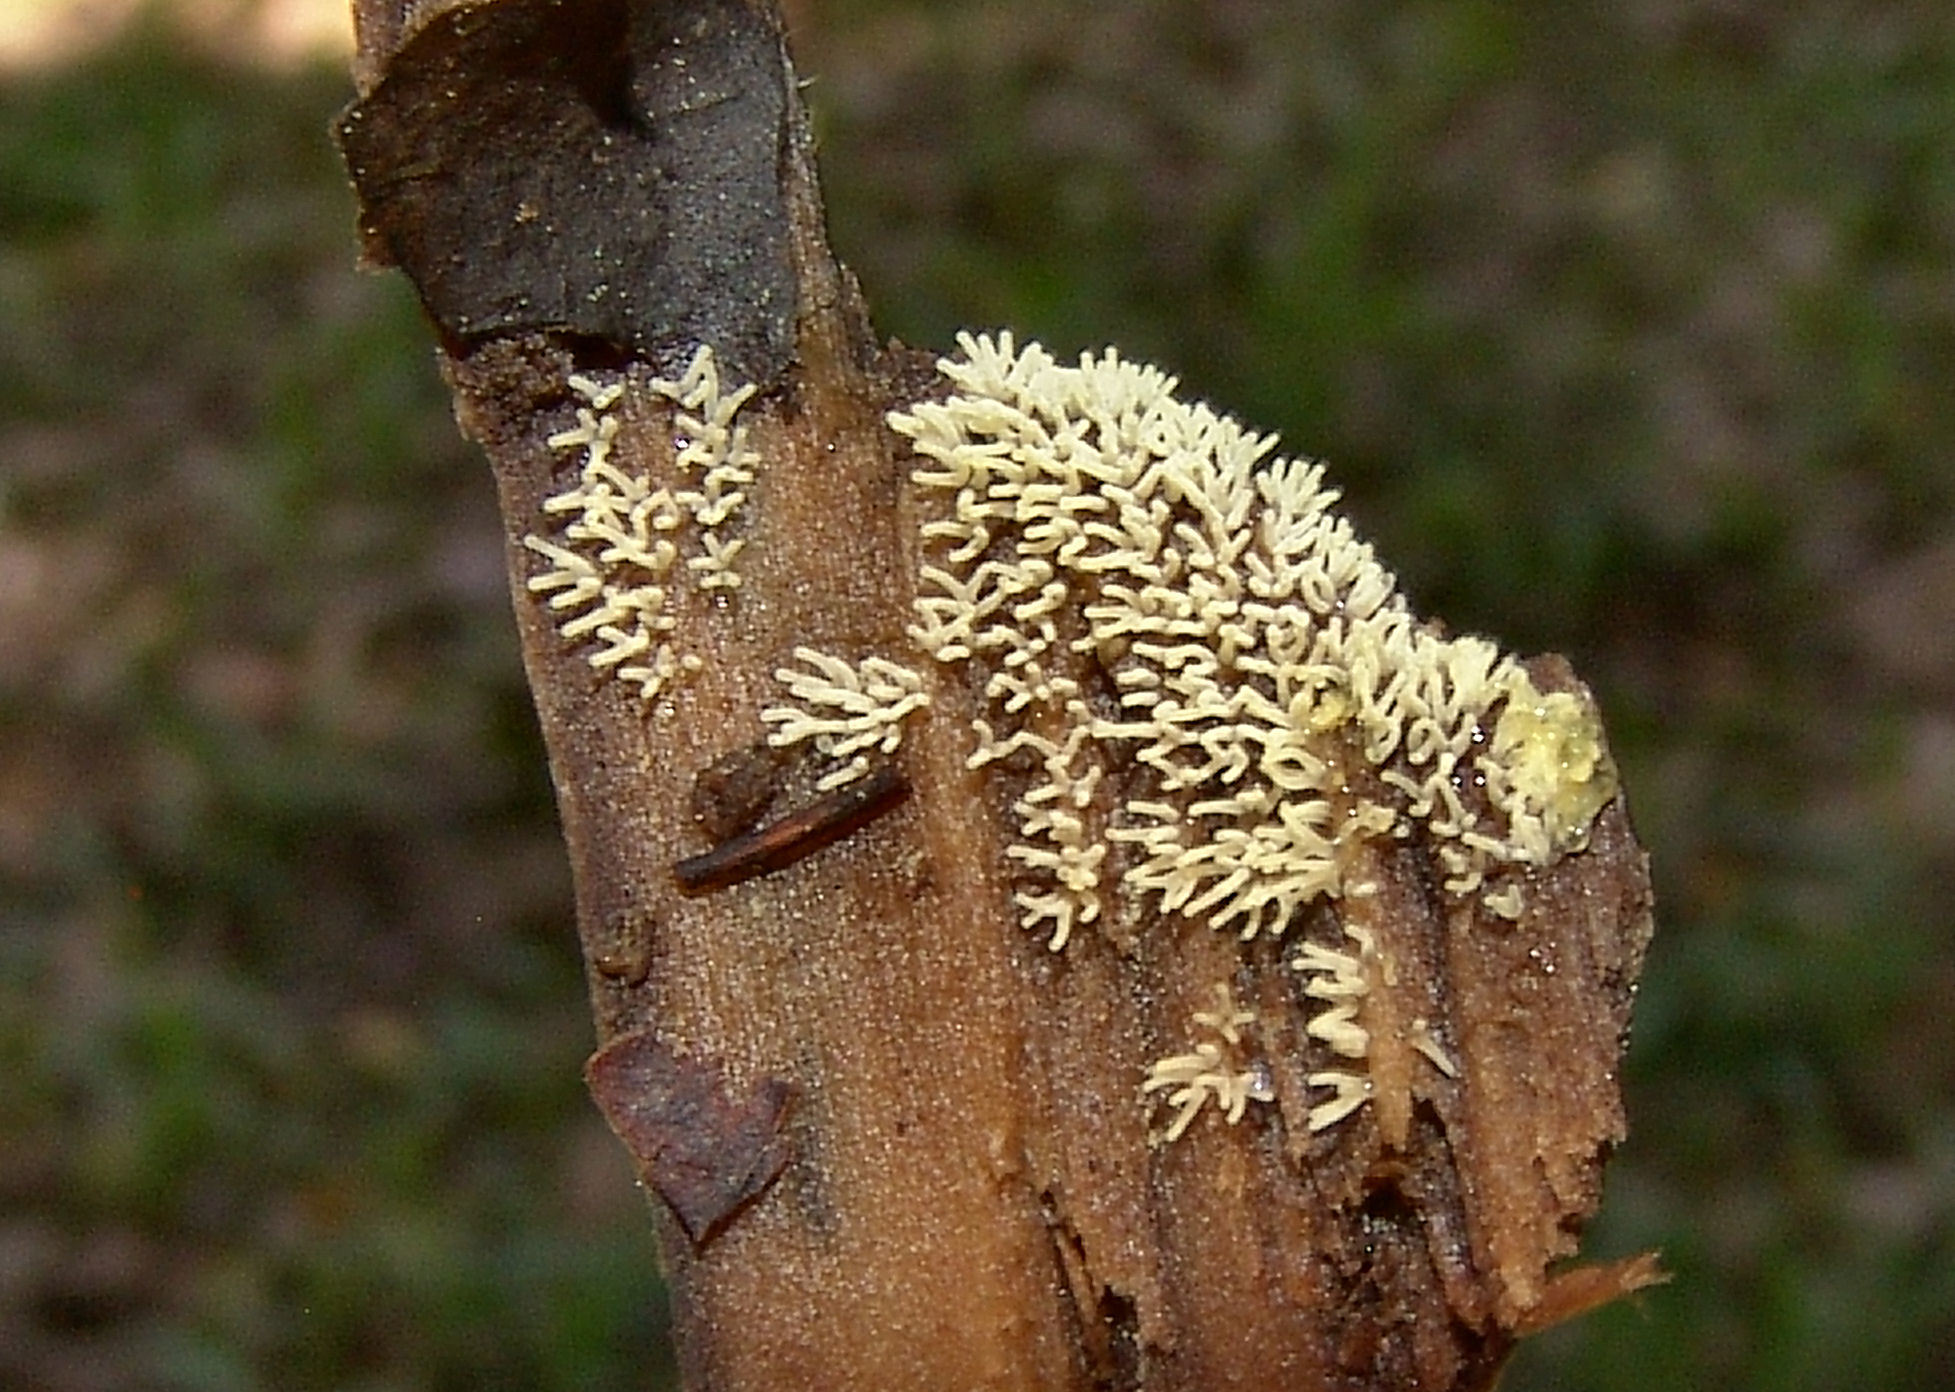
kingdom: Protozoa
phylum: Mycetozoa
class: Protosteliomycetes
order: Ceratiomyxales
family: Ceratiomyxaceae
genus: Ceratiomyxa
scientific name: Ceratiomyxa fruticulosa
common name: Honeycomb coral slime mold
